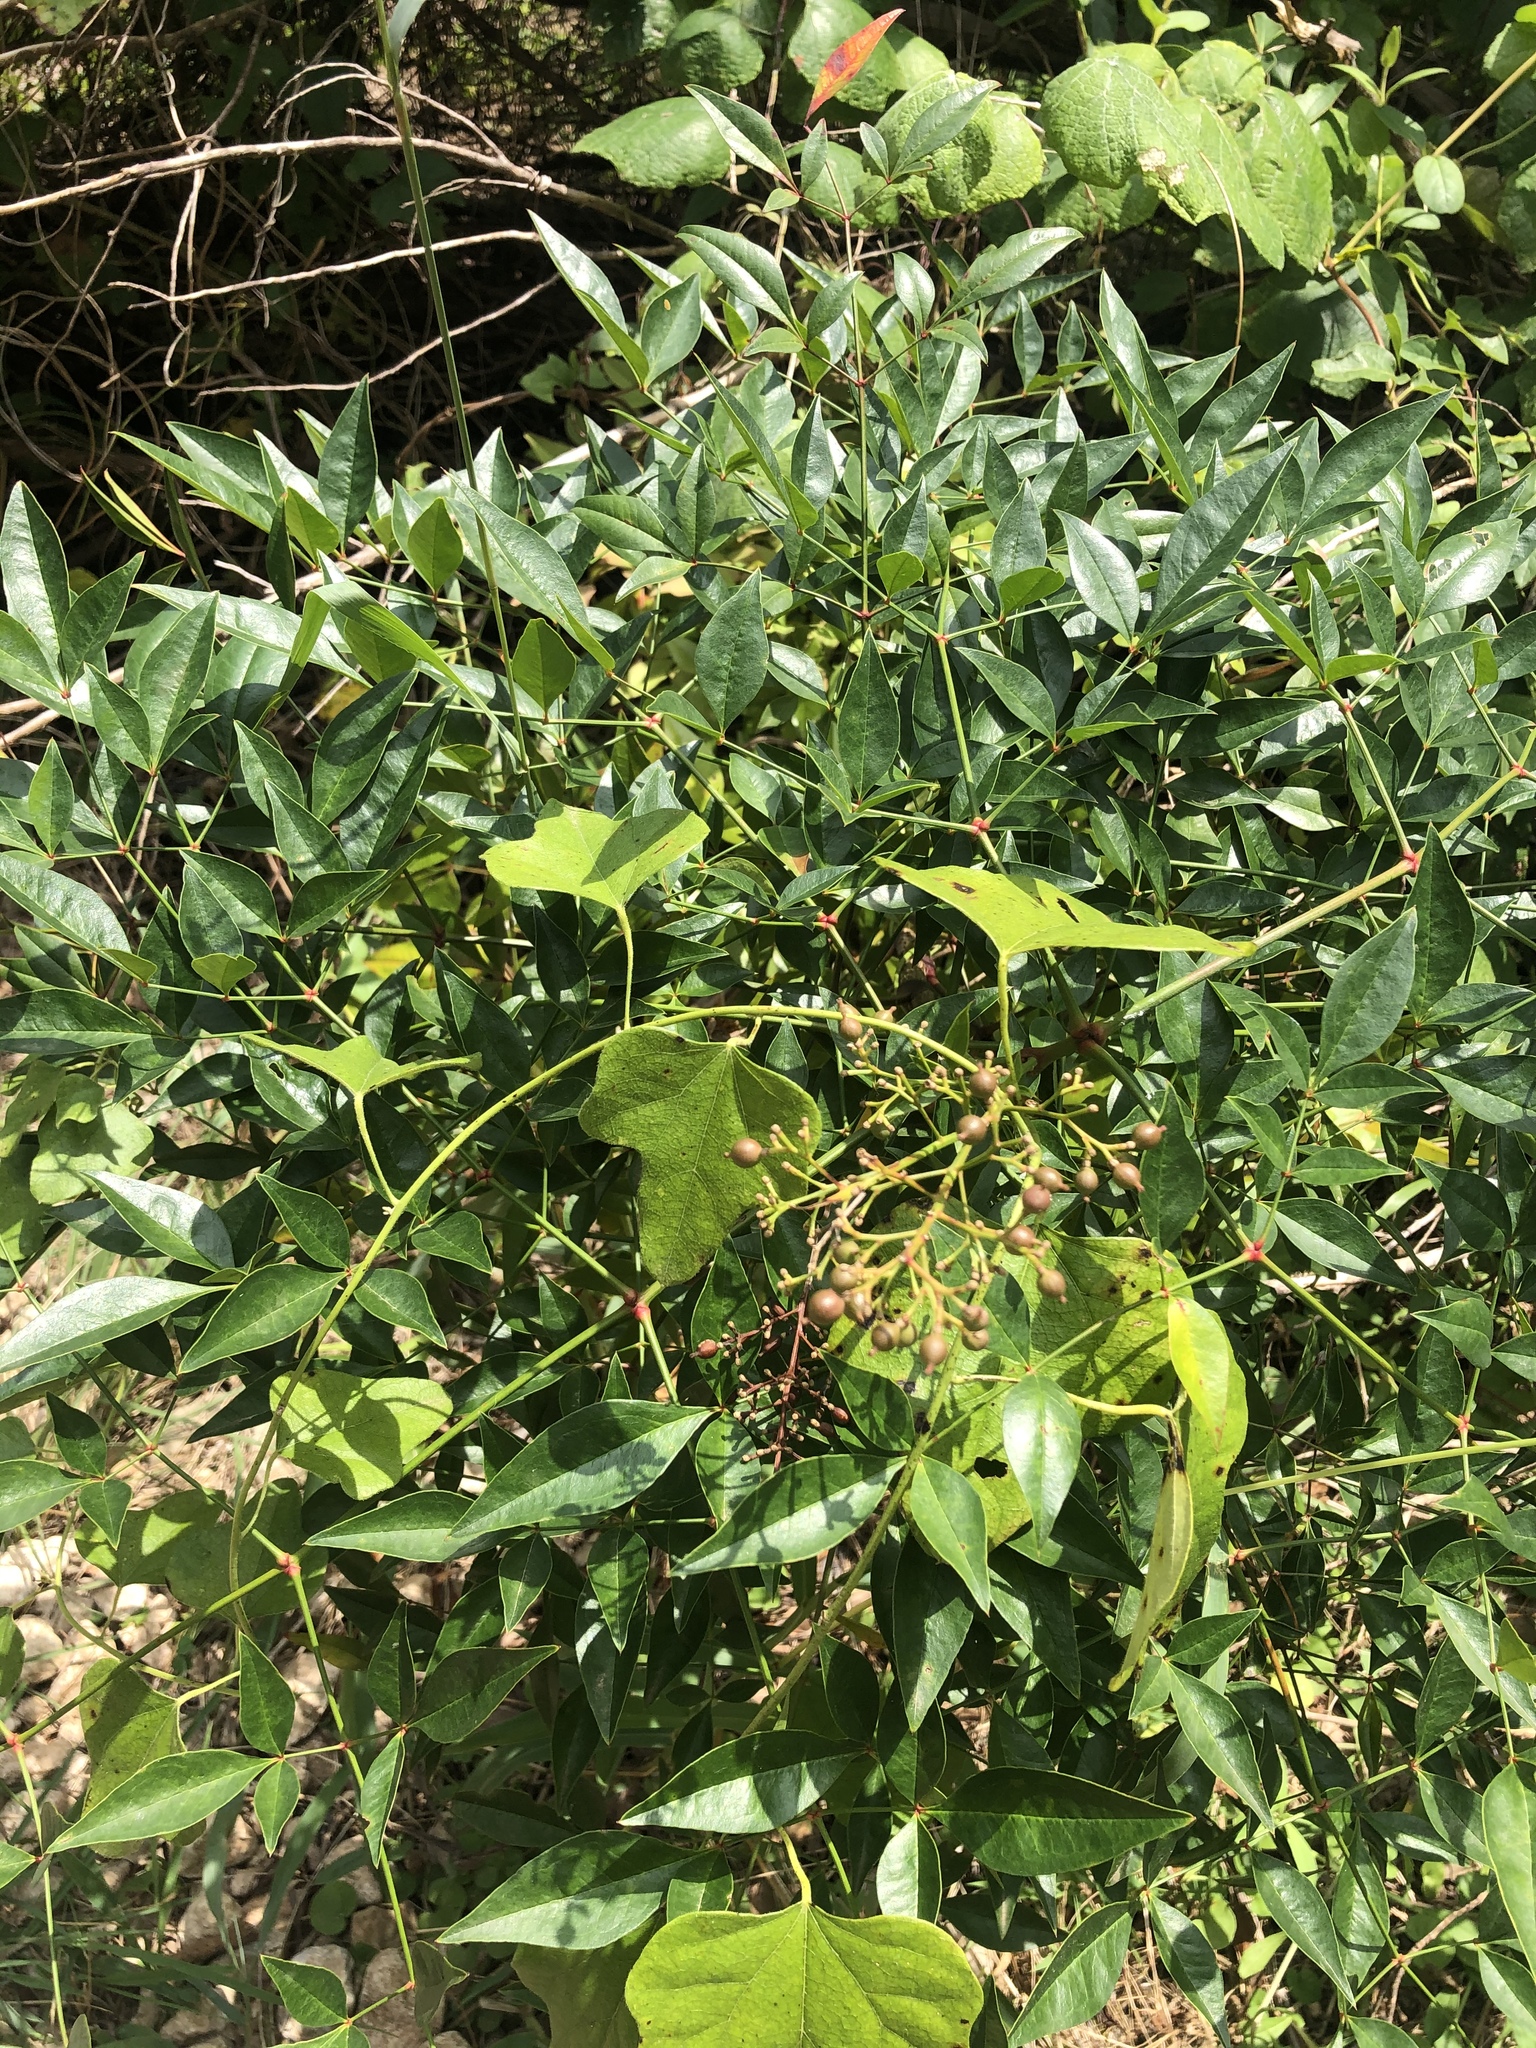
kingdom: Plantae
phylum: Tracheophyta
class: Magnoliopsida
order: Ranunculales
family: Berberidaceae
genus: Nandina
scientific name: Nandina domestica
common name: Sacred bamboo
